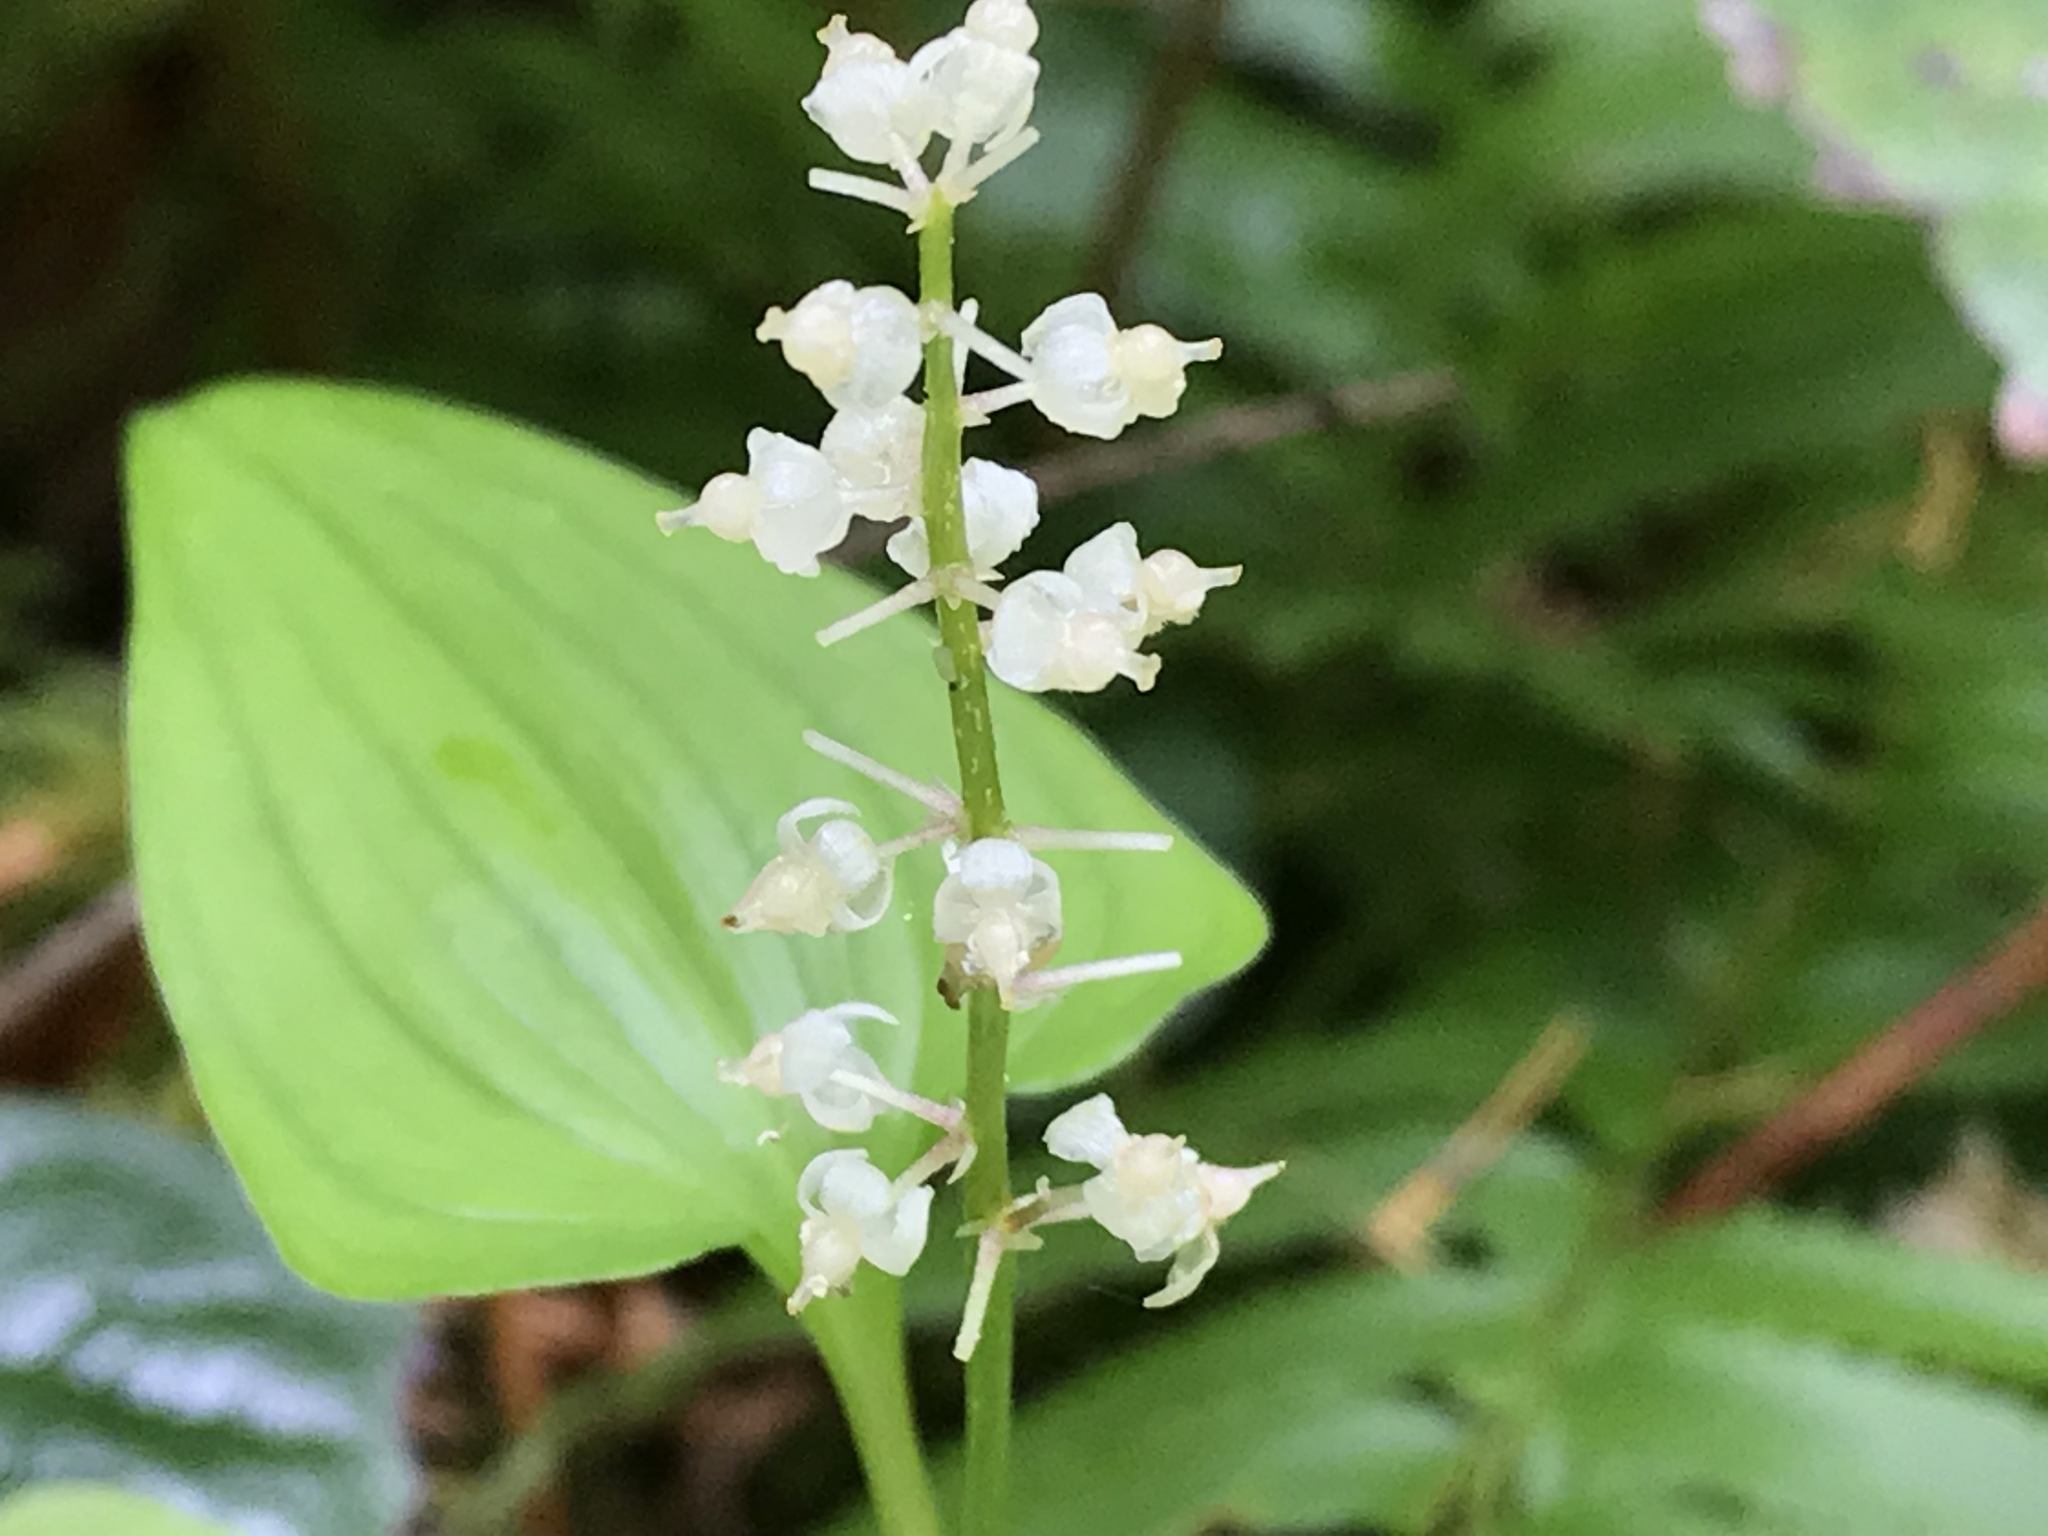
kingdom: Plantae
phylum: Tracheophyta
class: Liliopsida
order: Asparagales
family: Asparagaceae
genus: Maianthemum
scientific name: Maianthemum dilatatum
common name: False lily-of-the-valley
